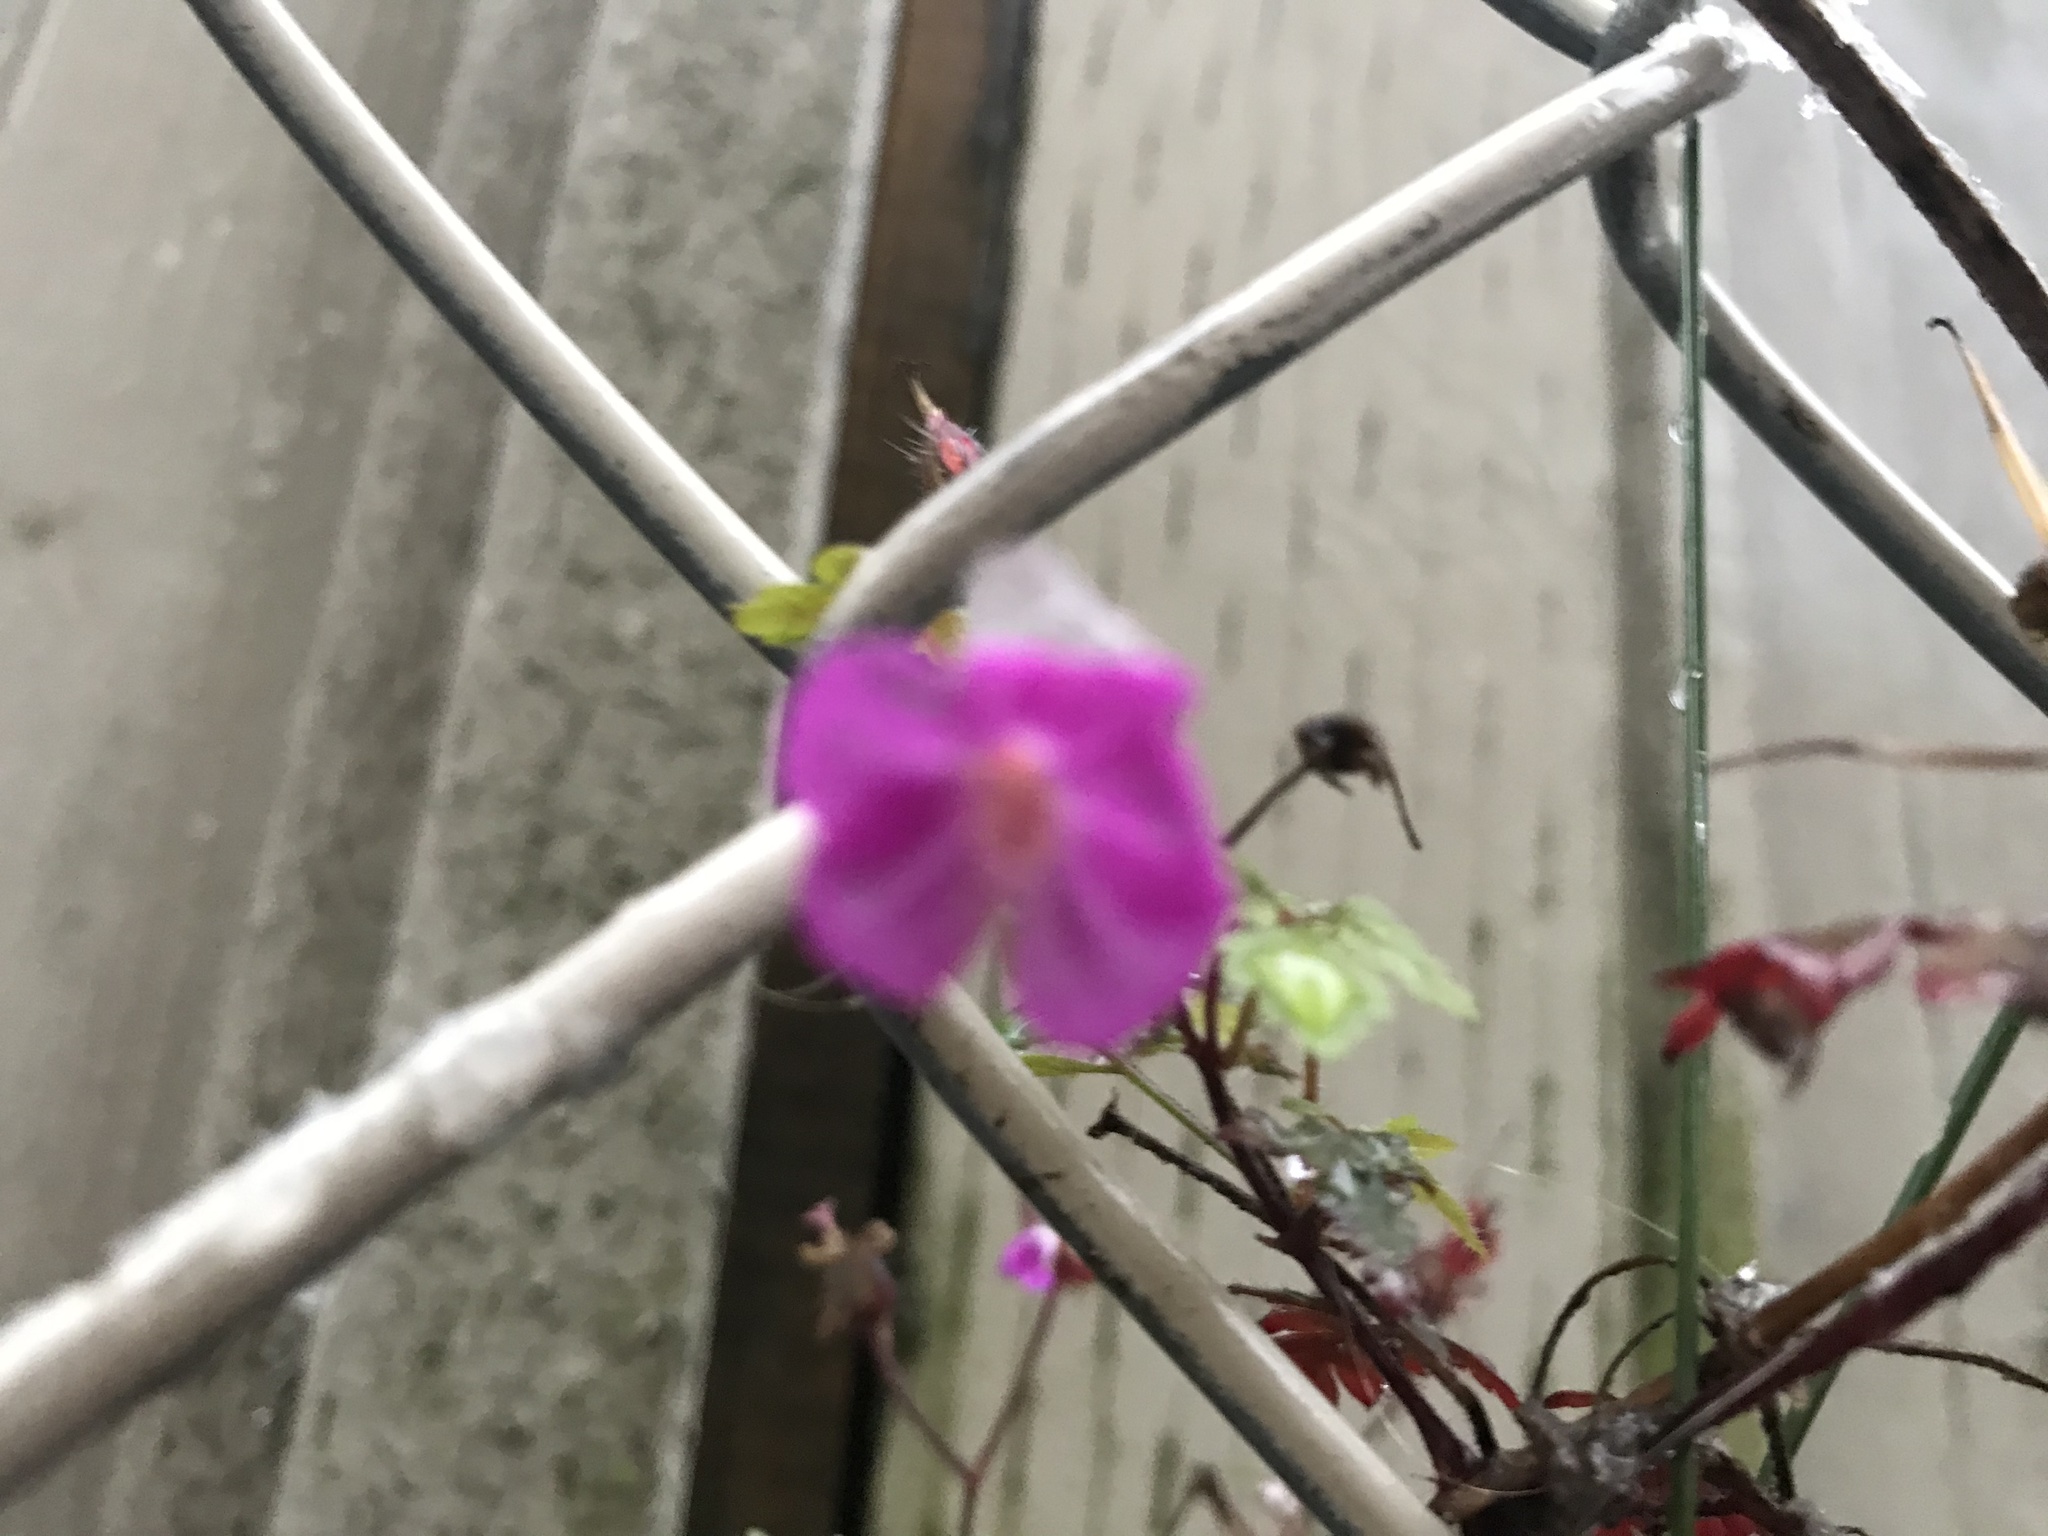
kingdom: Plantae
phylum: Tracheophyta
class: Magnoliopsida
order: Geraniales
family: Geraniaceae
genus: Geranium
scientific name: Geranium robertianum
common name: Herb-robert
